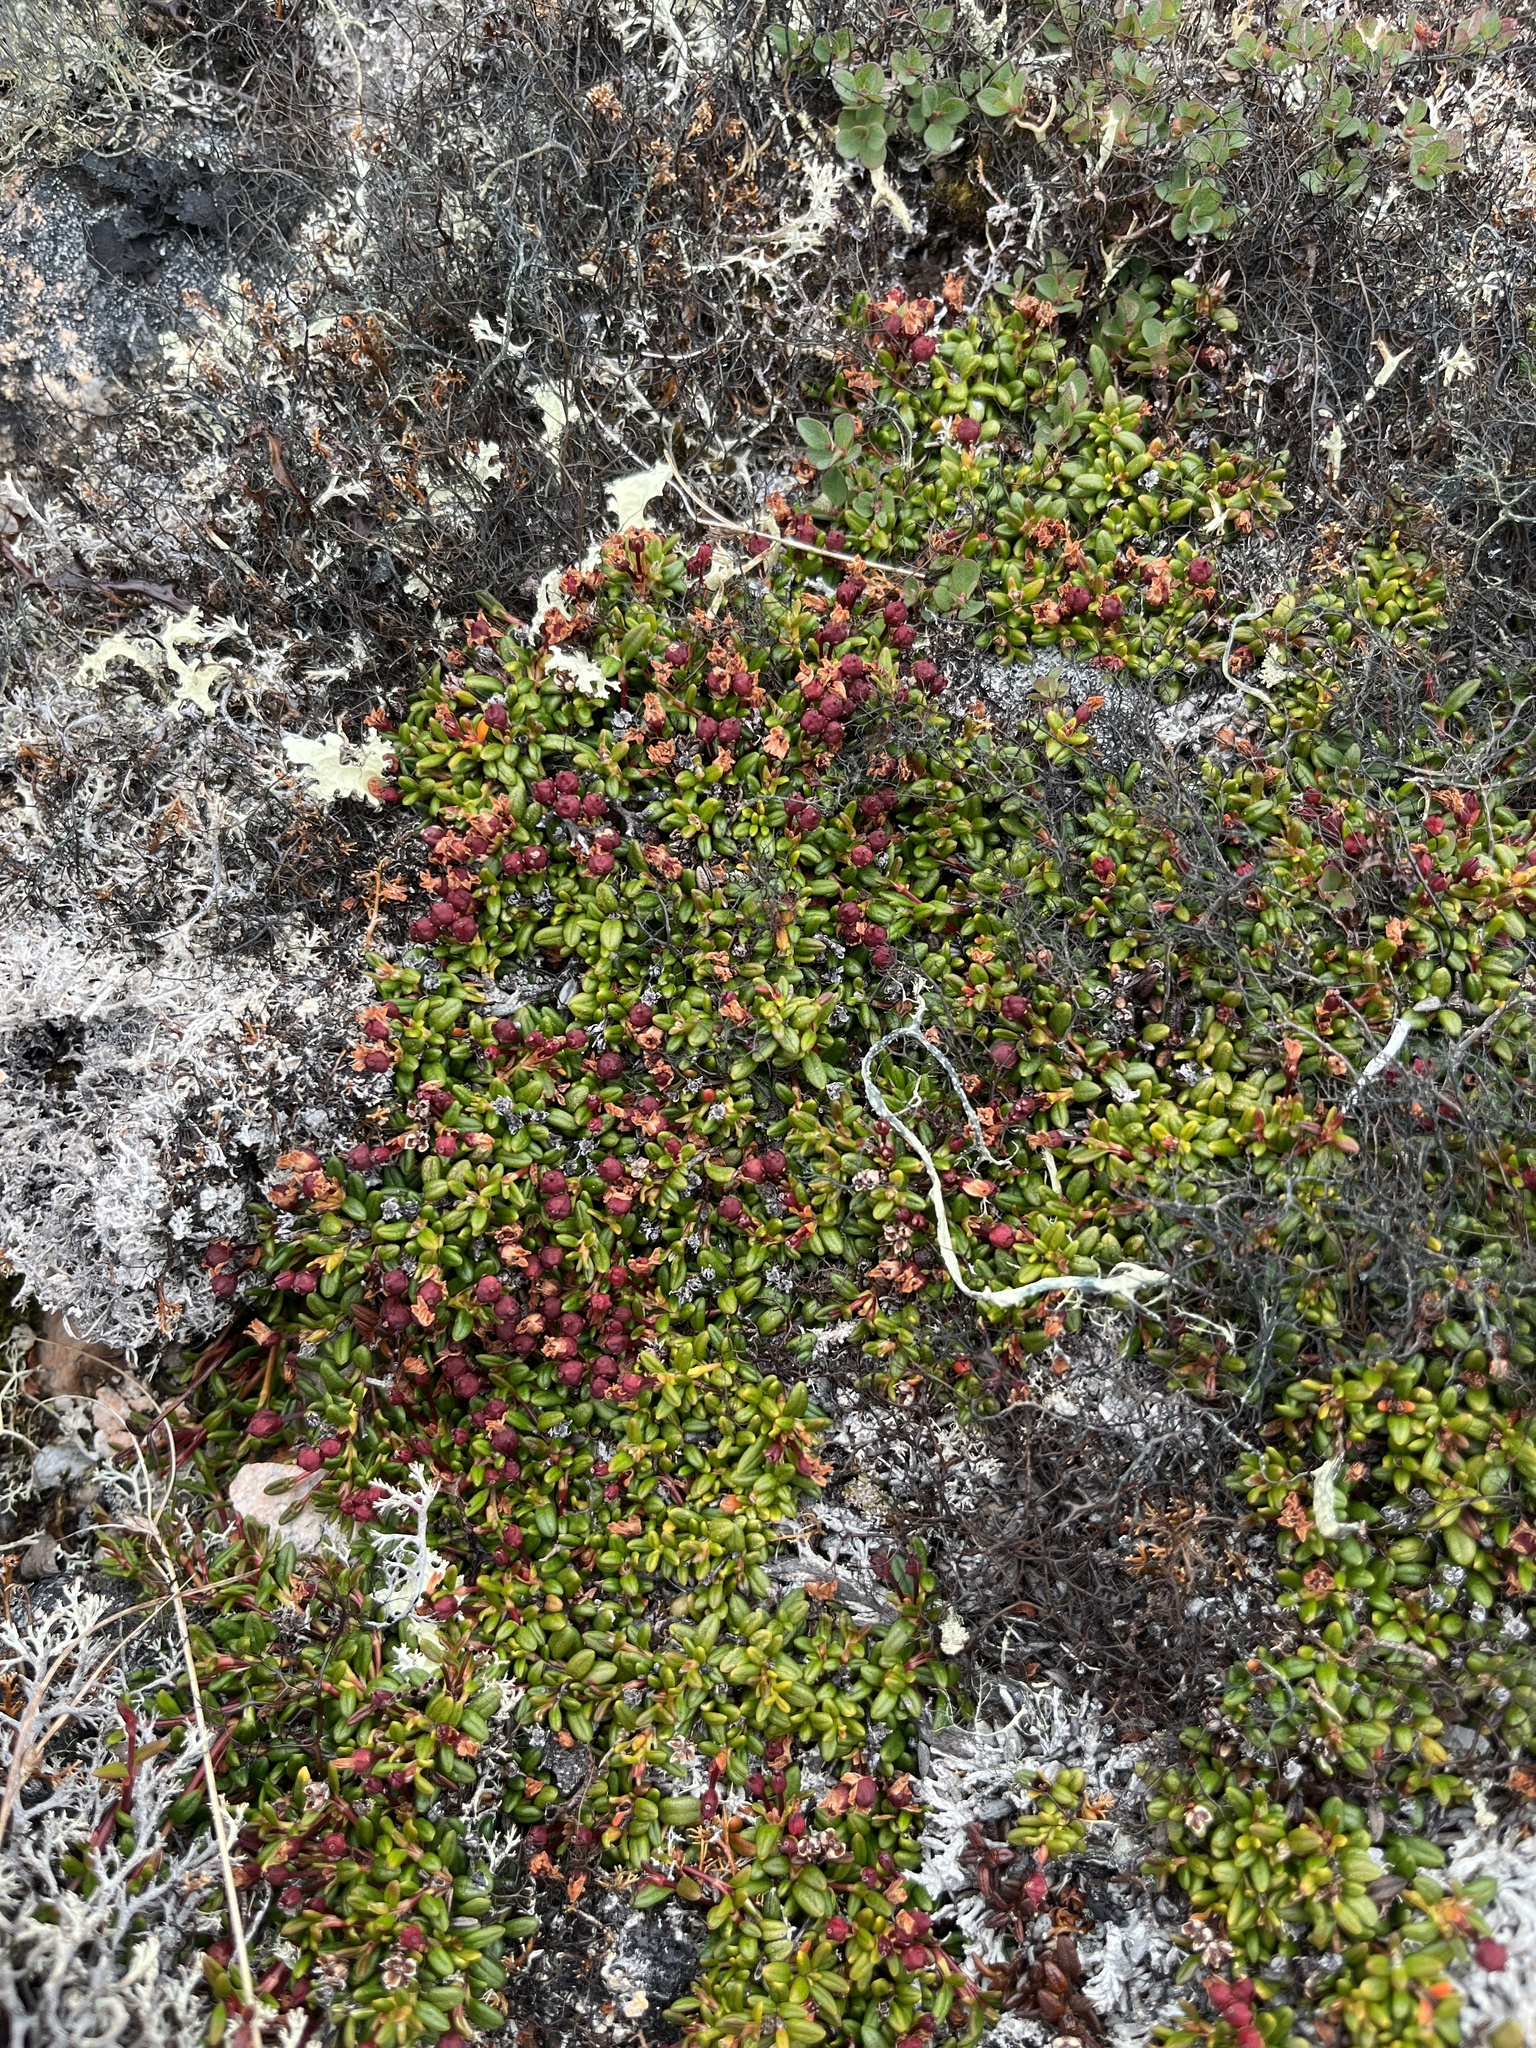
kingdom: Plantae
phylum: Tracheophyta
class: Magnoliopsida
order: Ericales
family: Ericaceae
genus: Kalmia
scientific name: Kalmia procumbens
